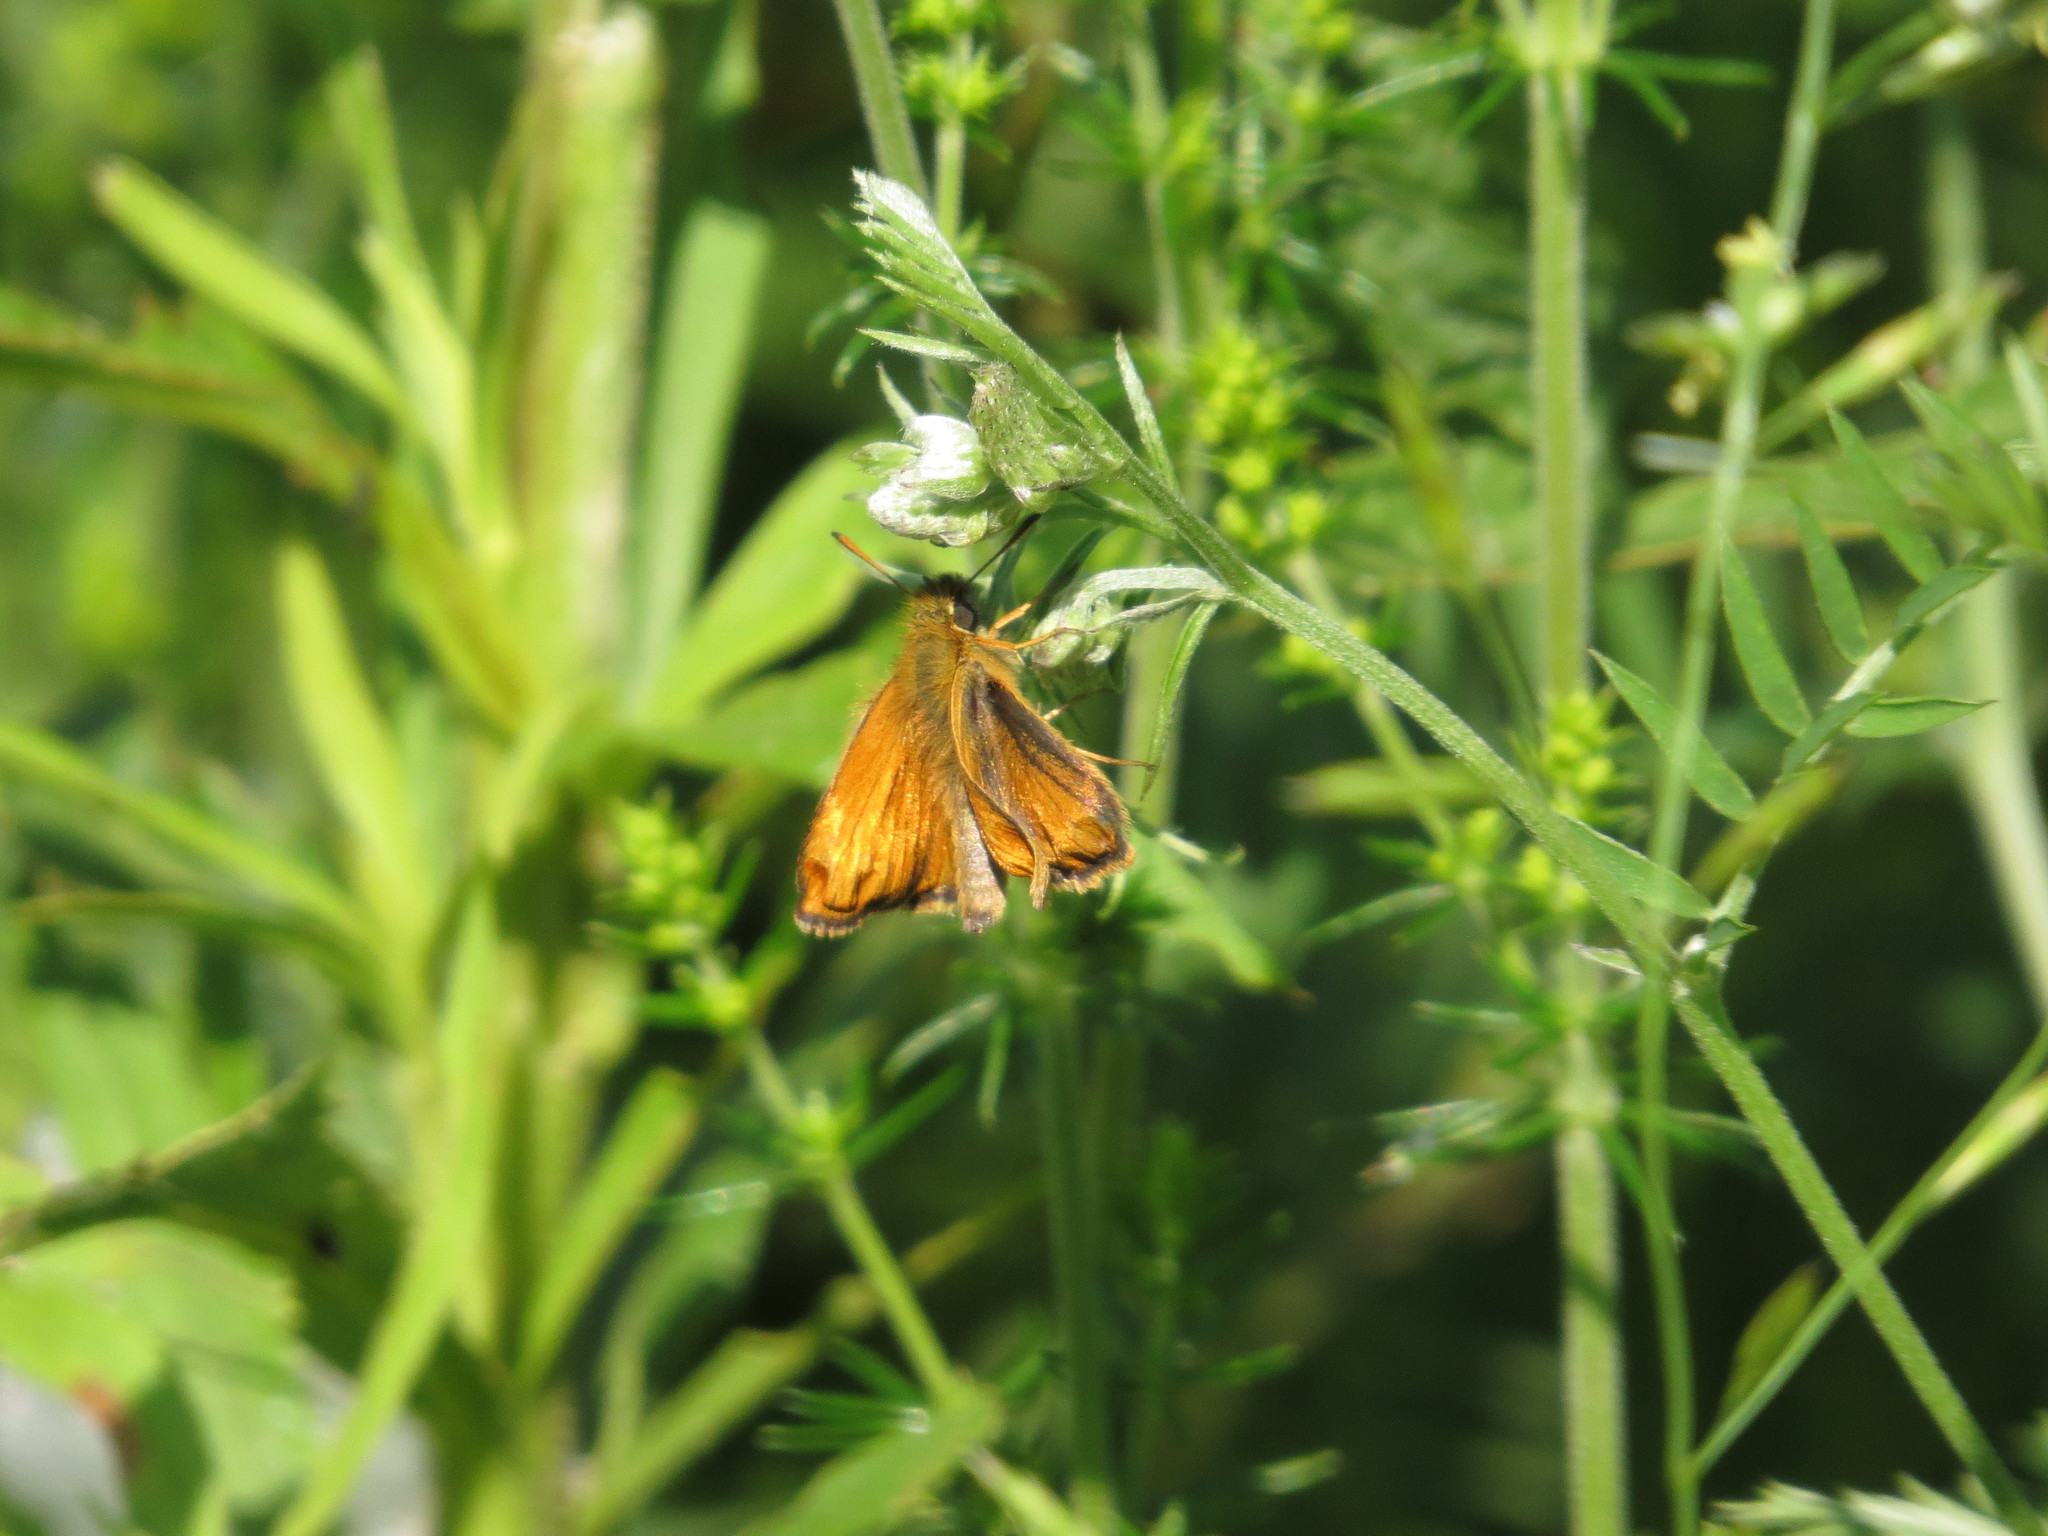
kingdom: Animalia
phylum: Arthropoda
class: Insecta
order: Lepidoptera
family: Hesperiidae
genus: Thymelicus
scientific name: Thymelicus lineola
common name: Essex skipper
